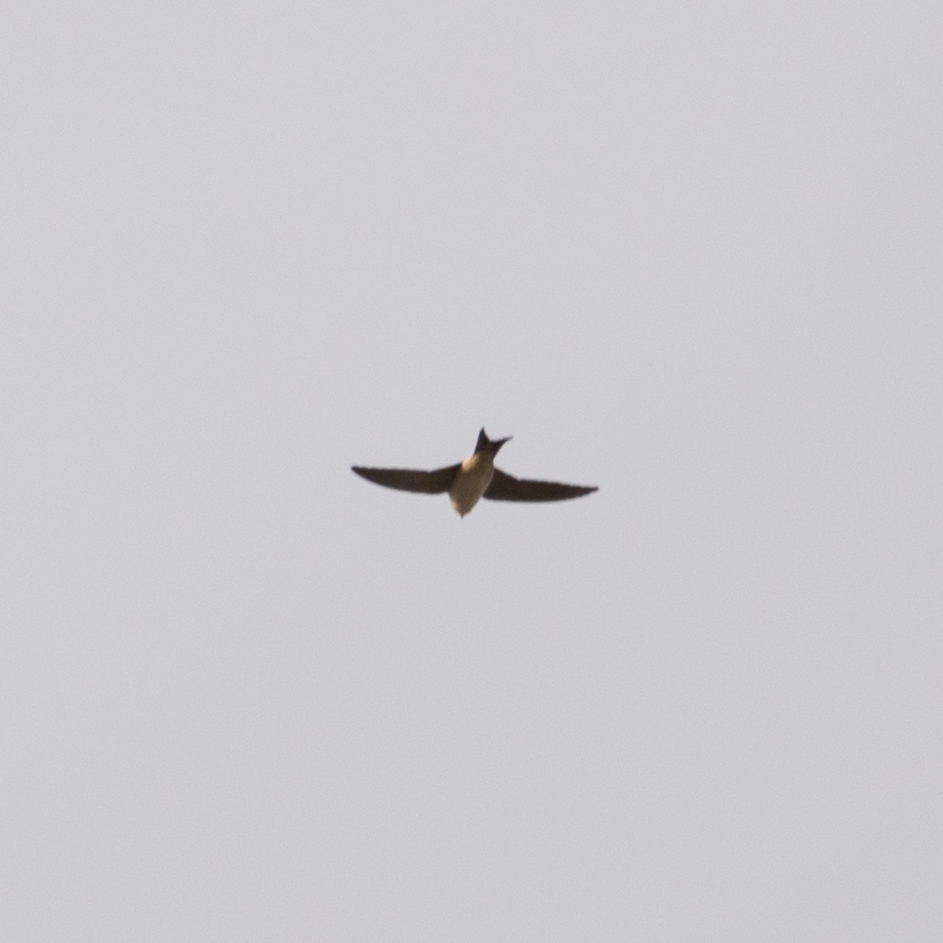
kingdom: Animalia
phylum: Chordata
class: Aves
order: Passeriformes
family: Hirundinidae
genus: Delichon
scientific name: Delichon urbicum
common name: Common house martin
